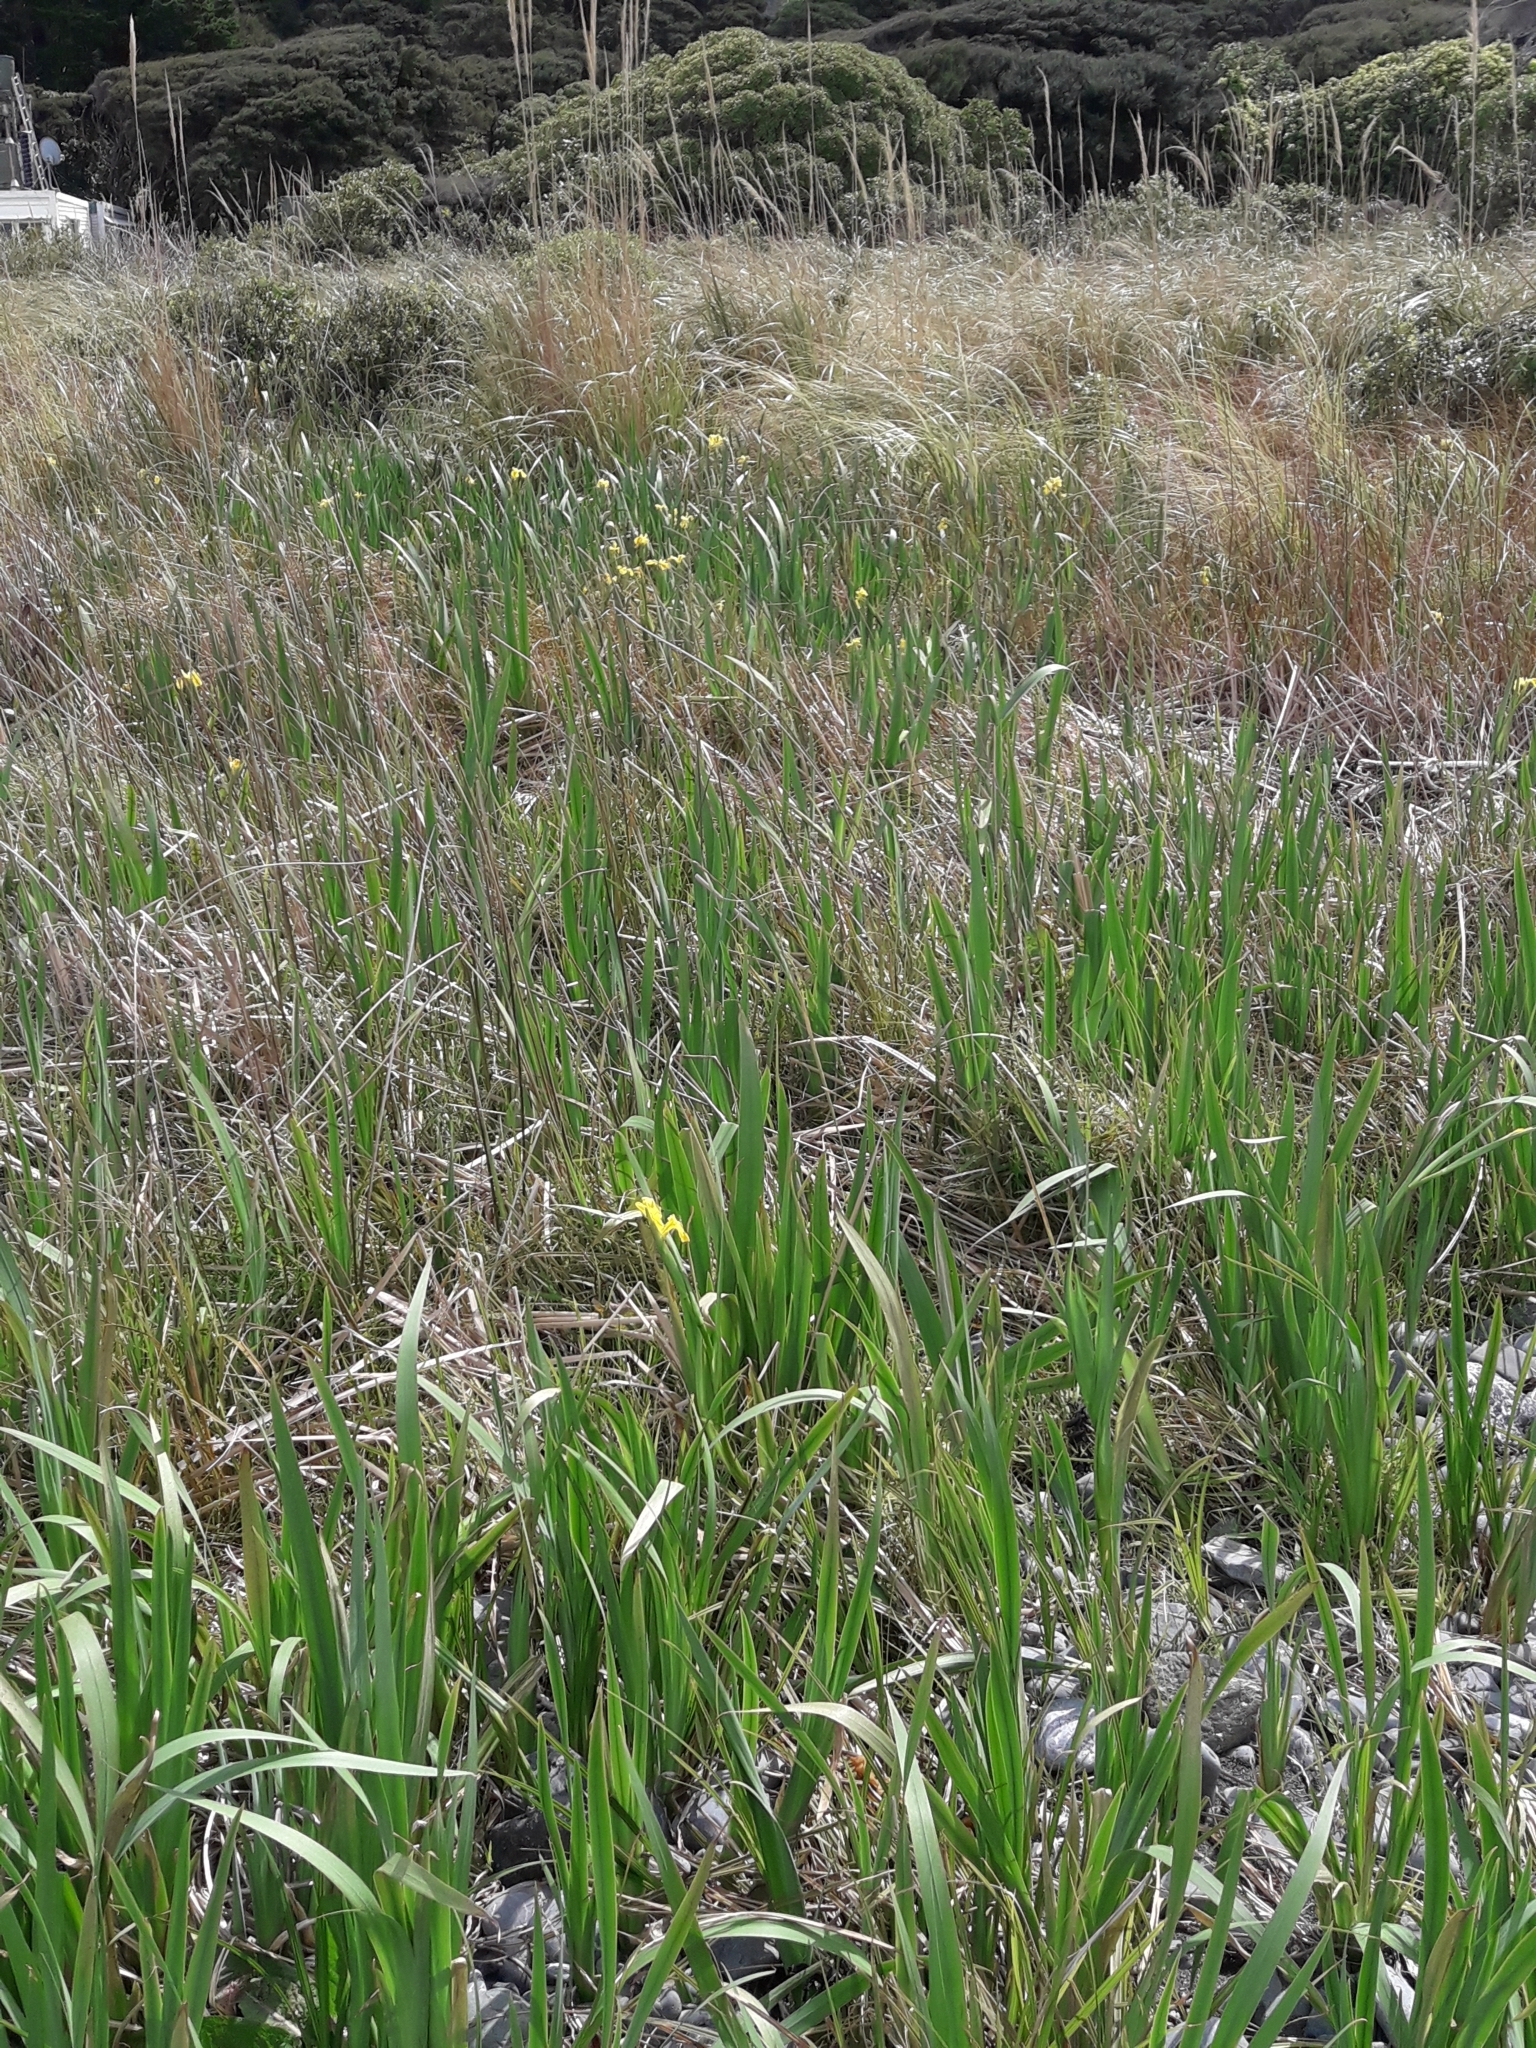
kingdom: Plantae
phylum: Tracheophyta
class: Liliopsida
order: Asparagales
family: Iridaceae
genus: Iris
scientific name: Iris pseudacorus
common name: Yellow flag
